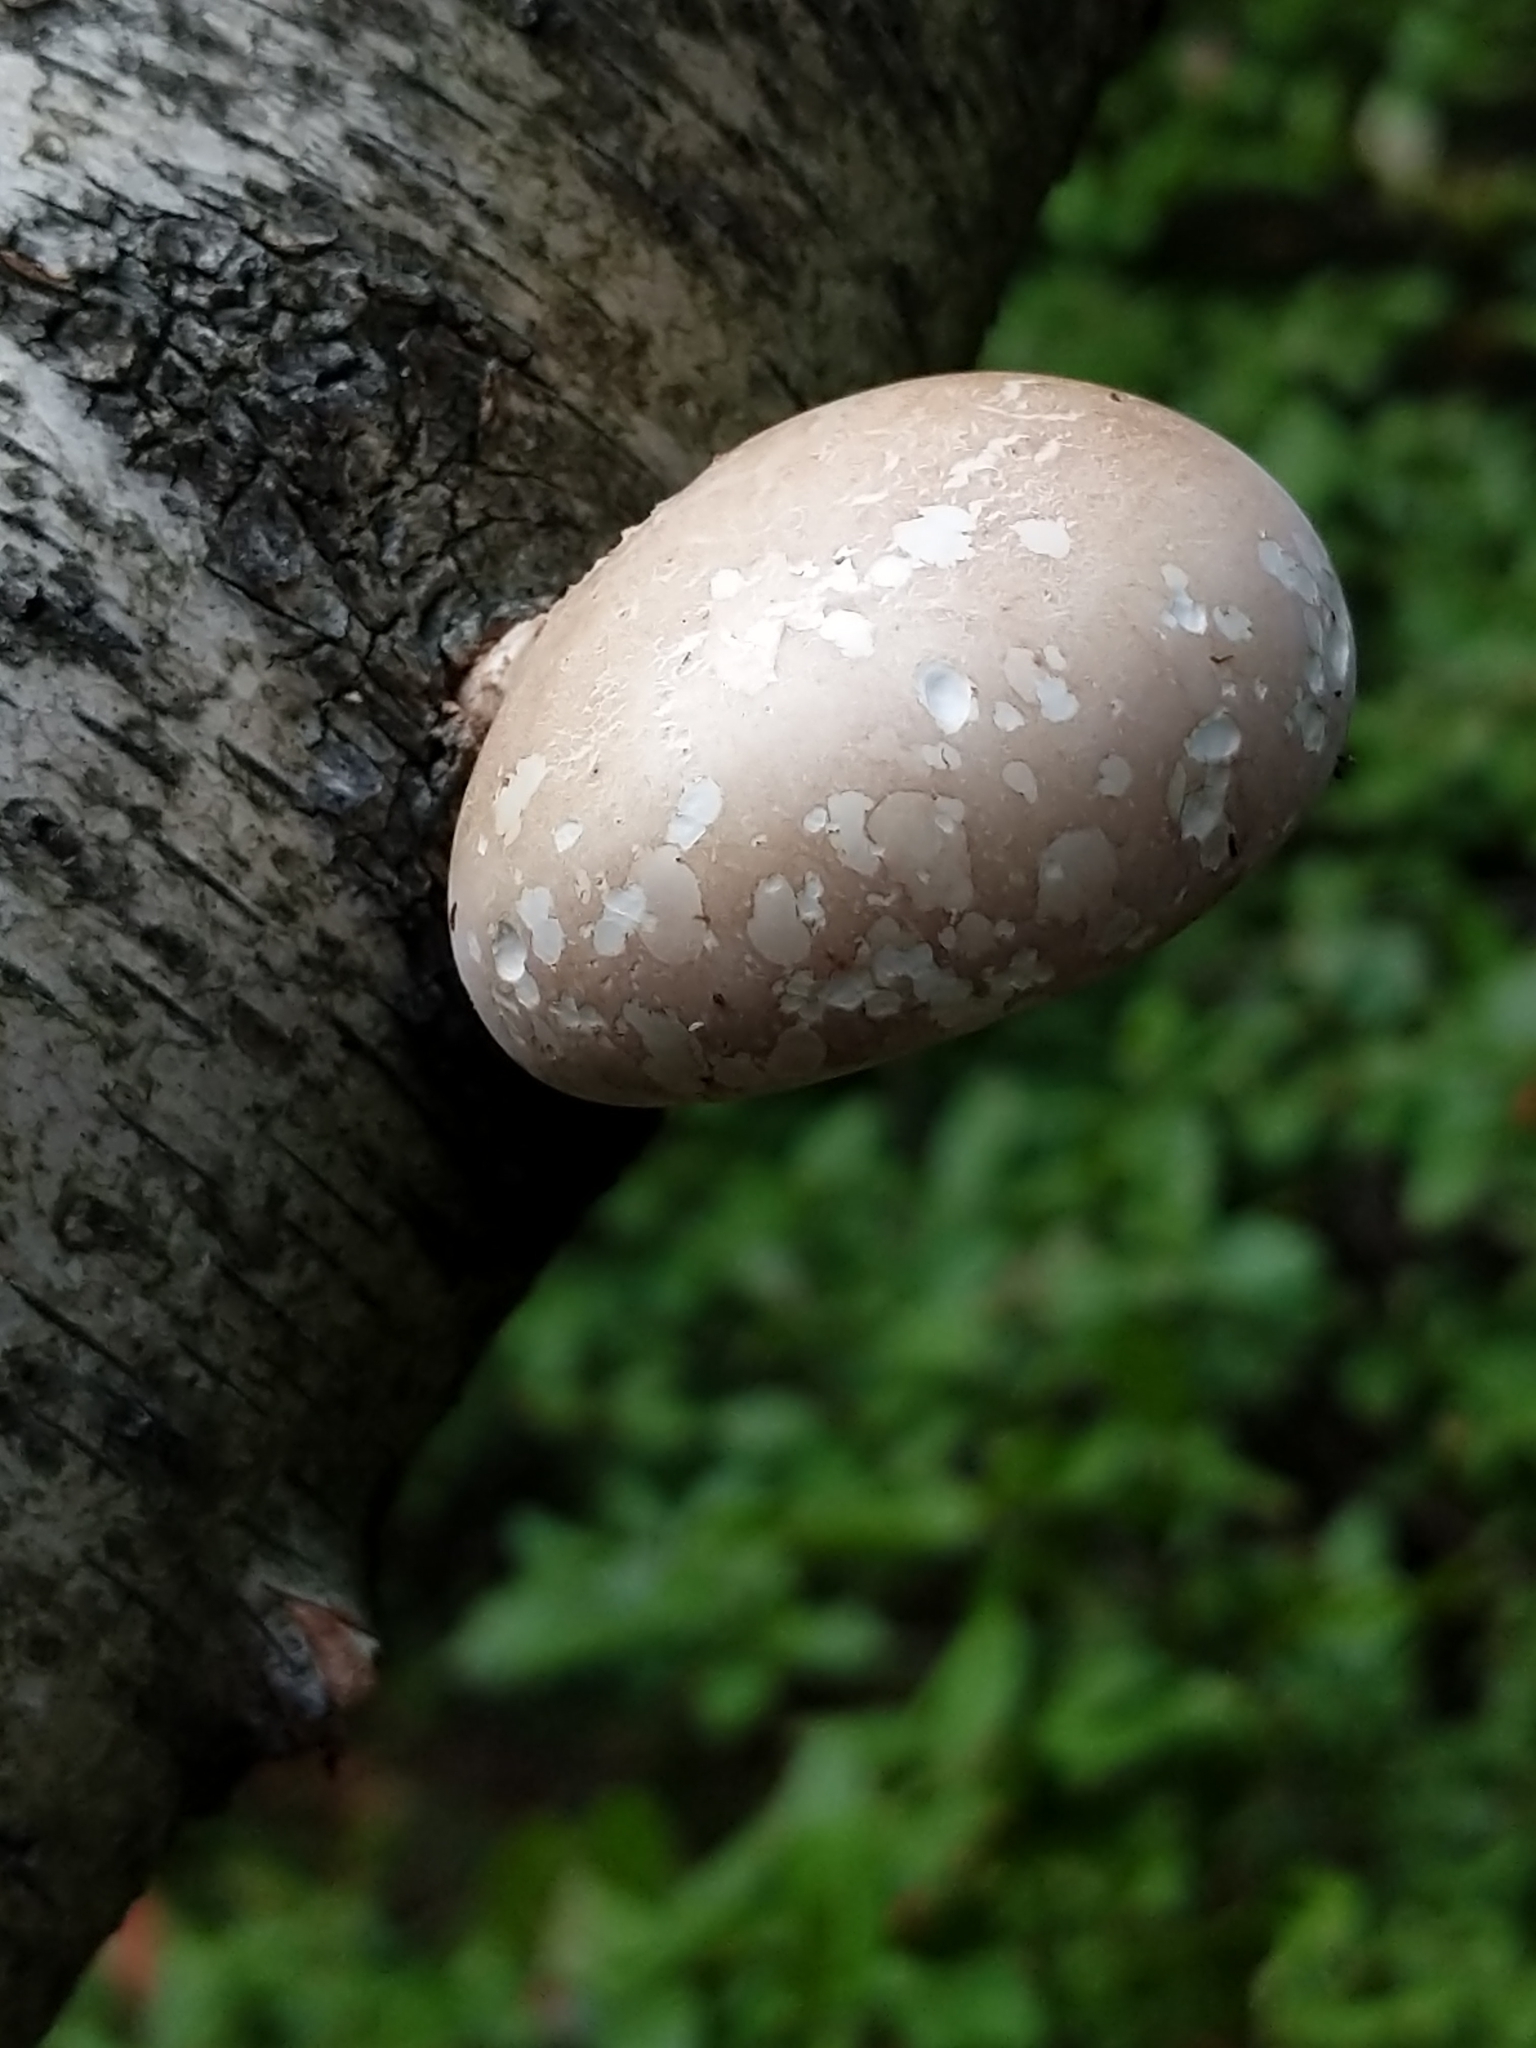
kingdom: Fungi
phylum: Basidiomycota
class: Agaricomycetes
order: Polyporales
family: Fomitopsidaceae
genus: Fomitopsis
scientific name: Fomitopsis betulina
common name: Birch polypore
